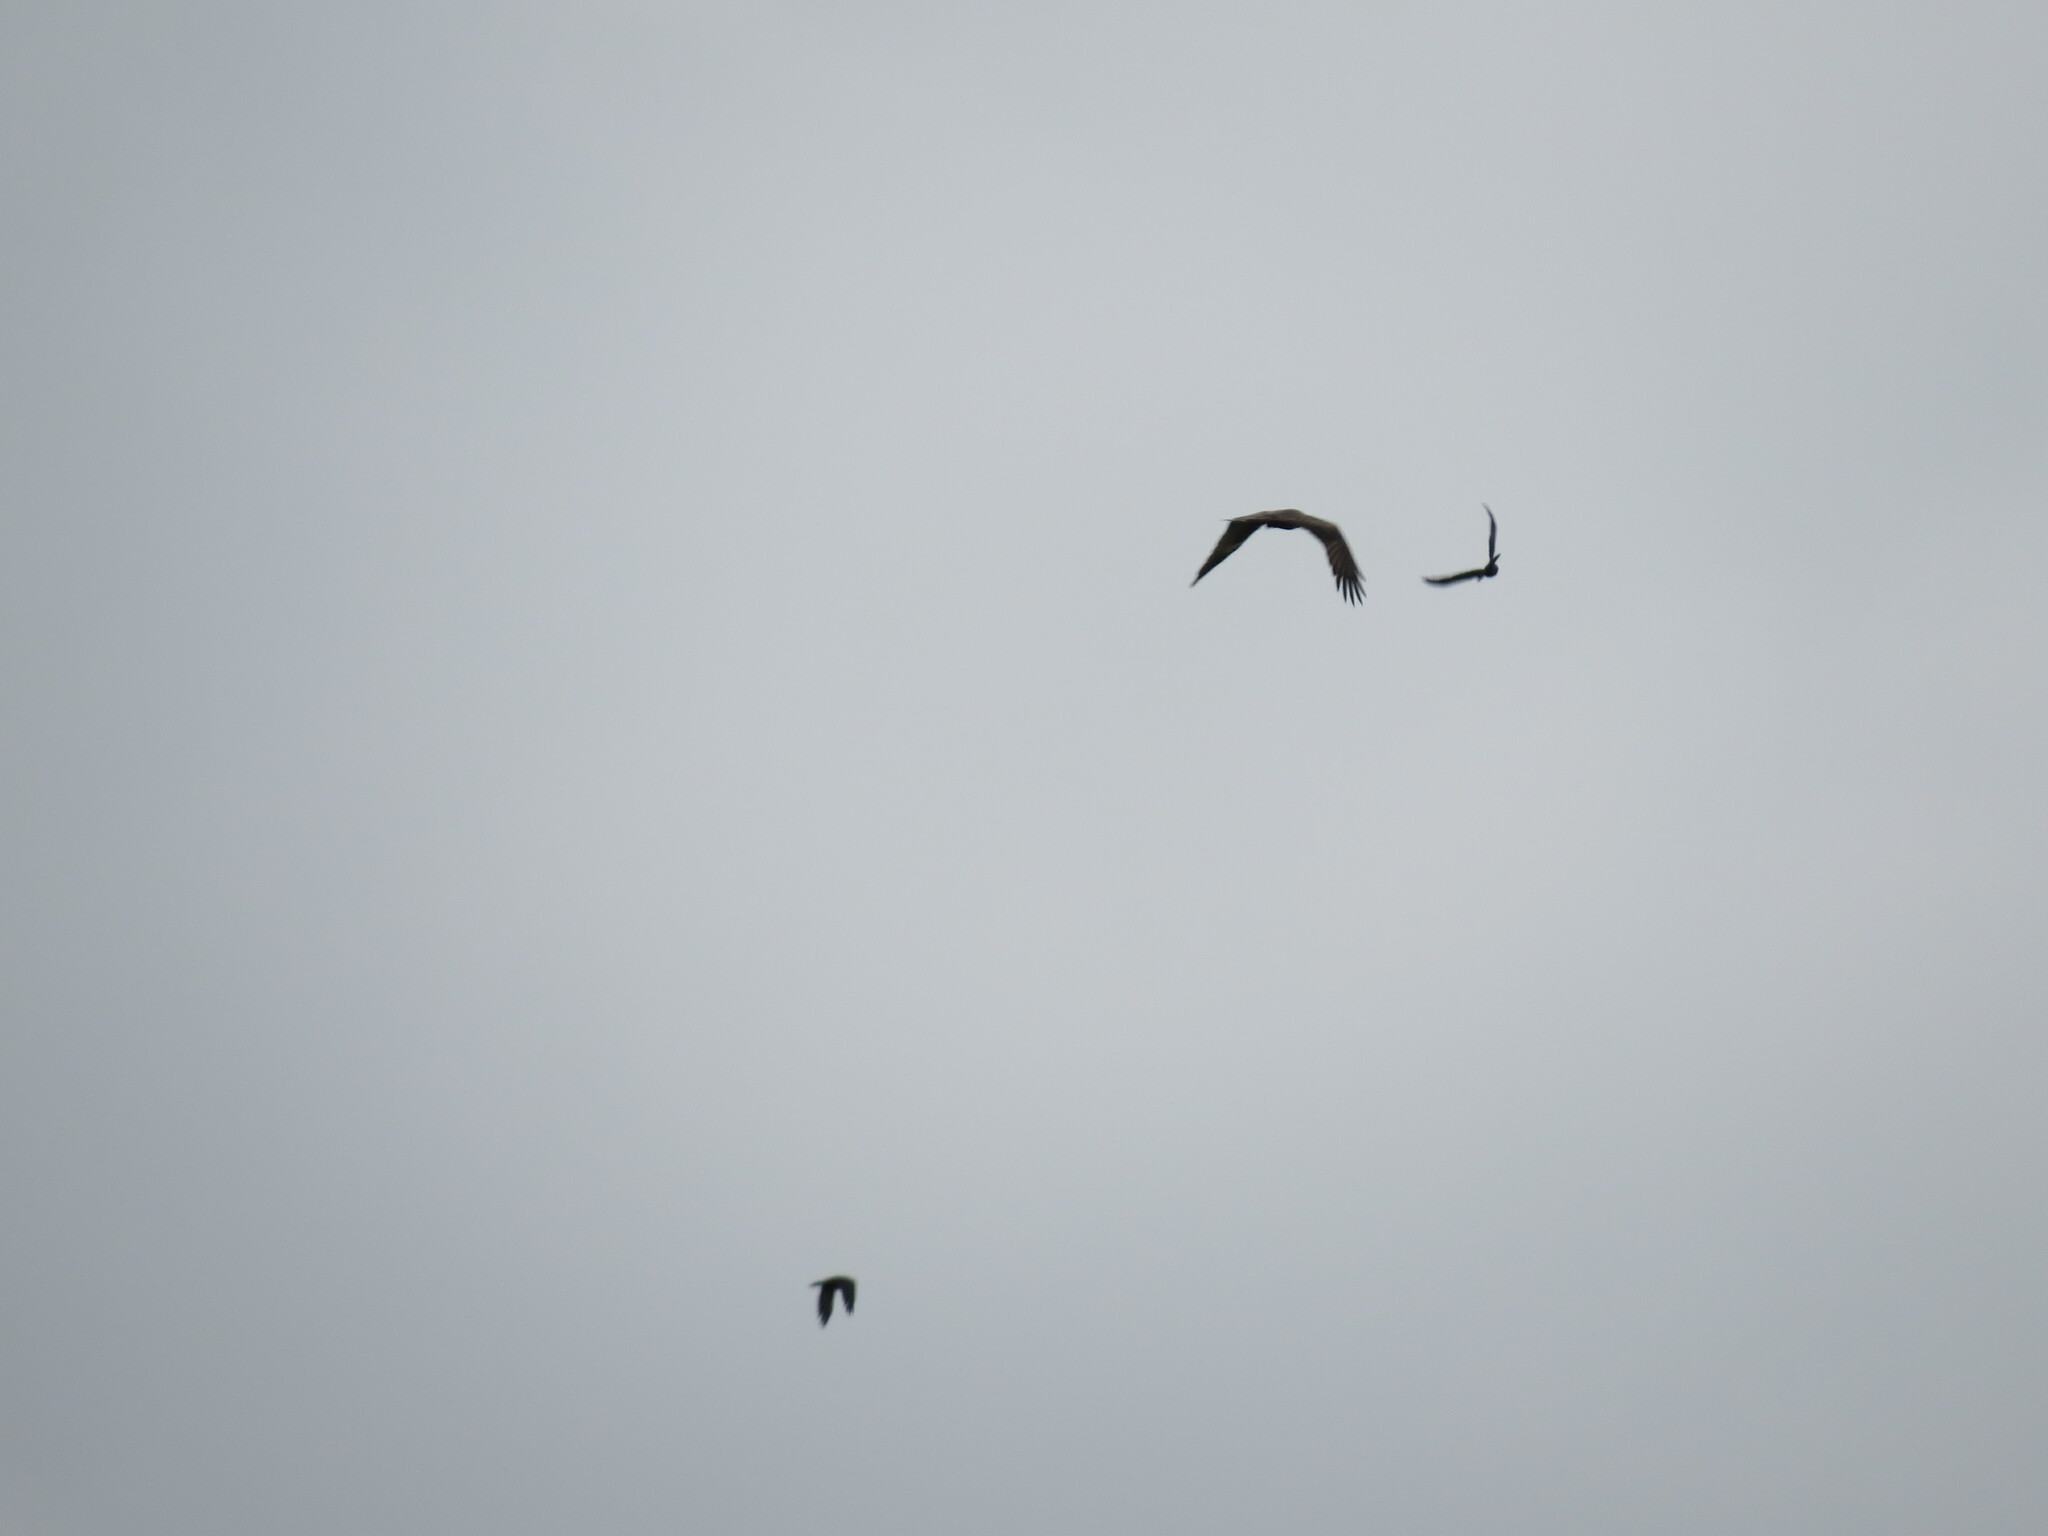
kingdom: Animalia
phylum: Chordata
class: Aves
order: Accipitriformes
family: Accipitridae
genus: Milvus
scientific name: Milvus migrans
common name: Black kite
